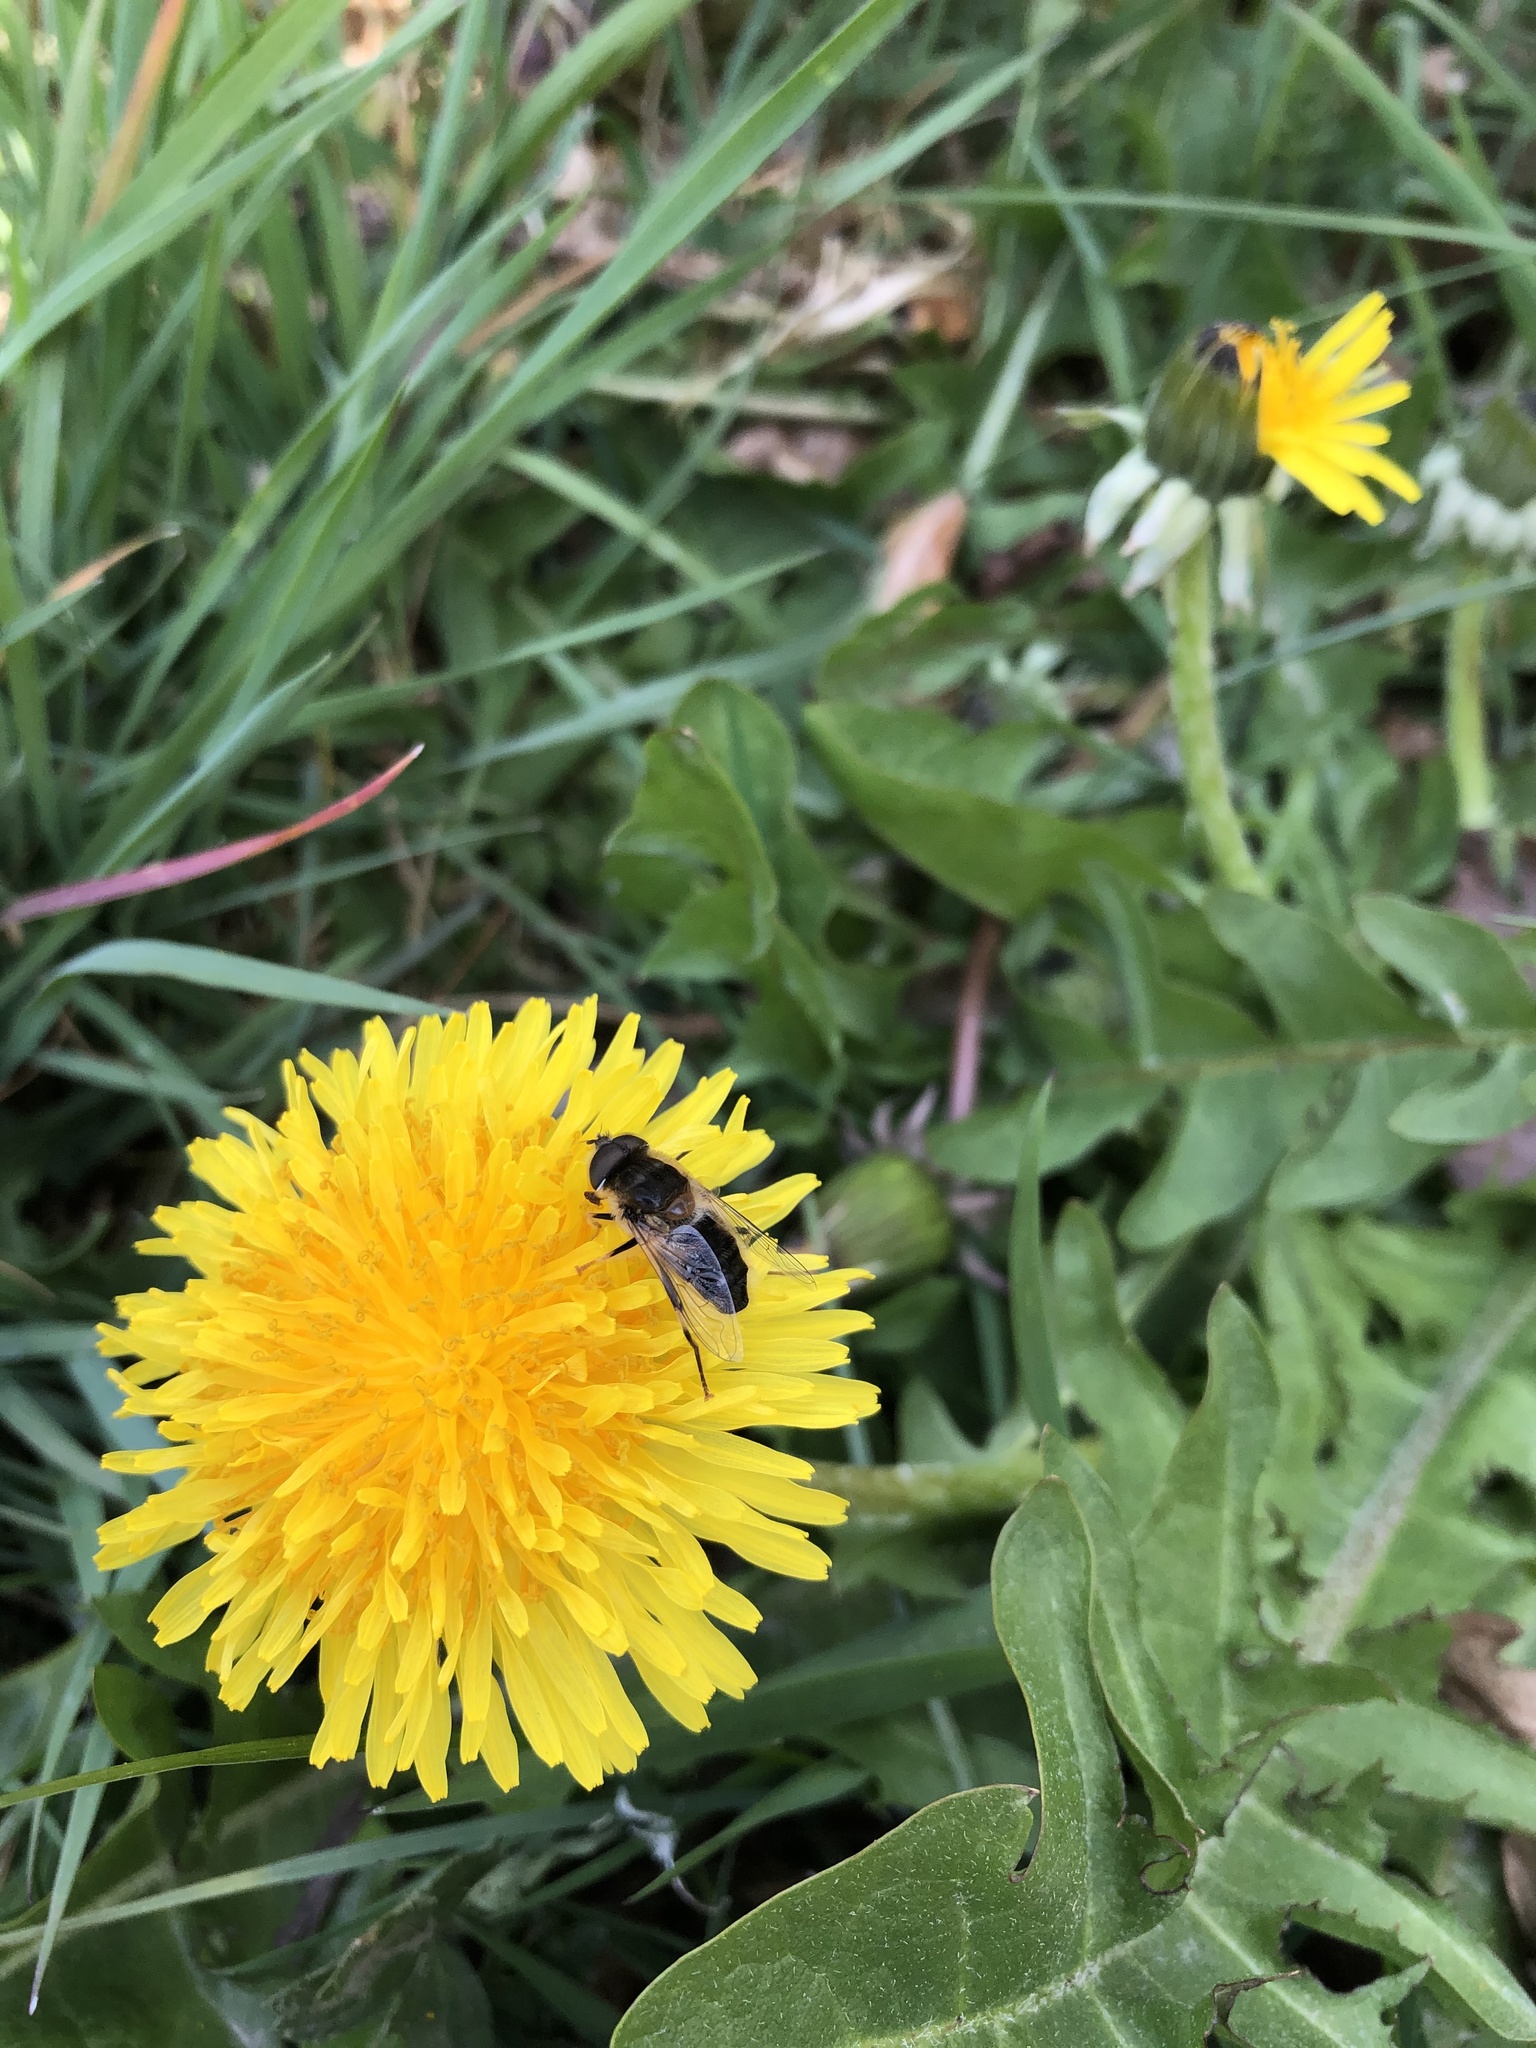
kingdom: Animalia
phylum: Arthropoda
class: Insecta
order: Diptera
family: Syrphidae
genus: Eristalis
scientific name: Eristalis pertinax
